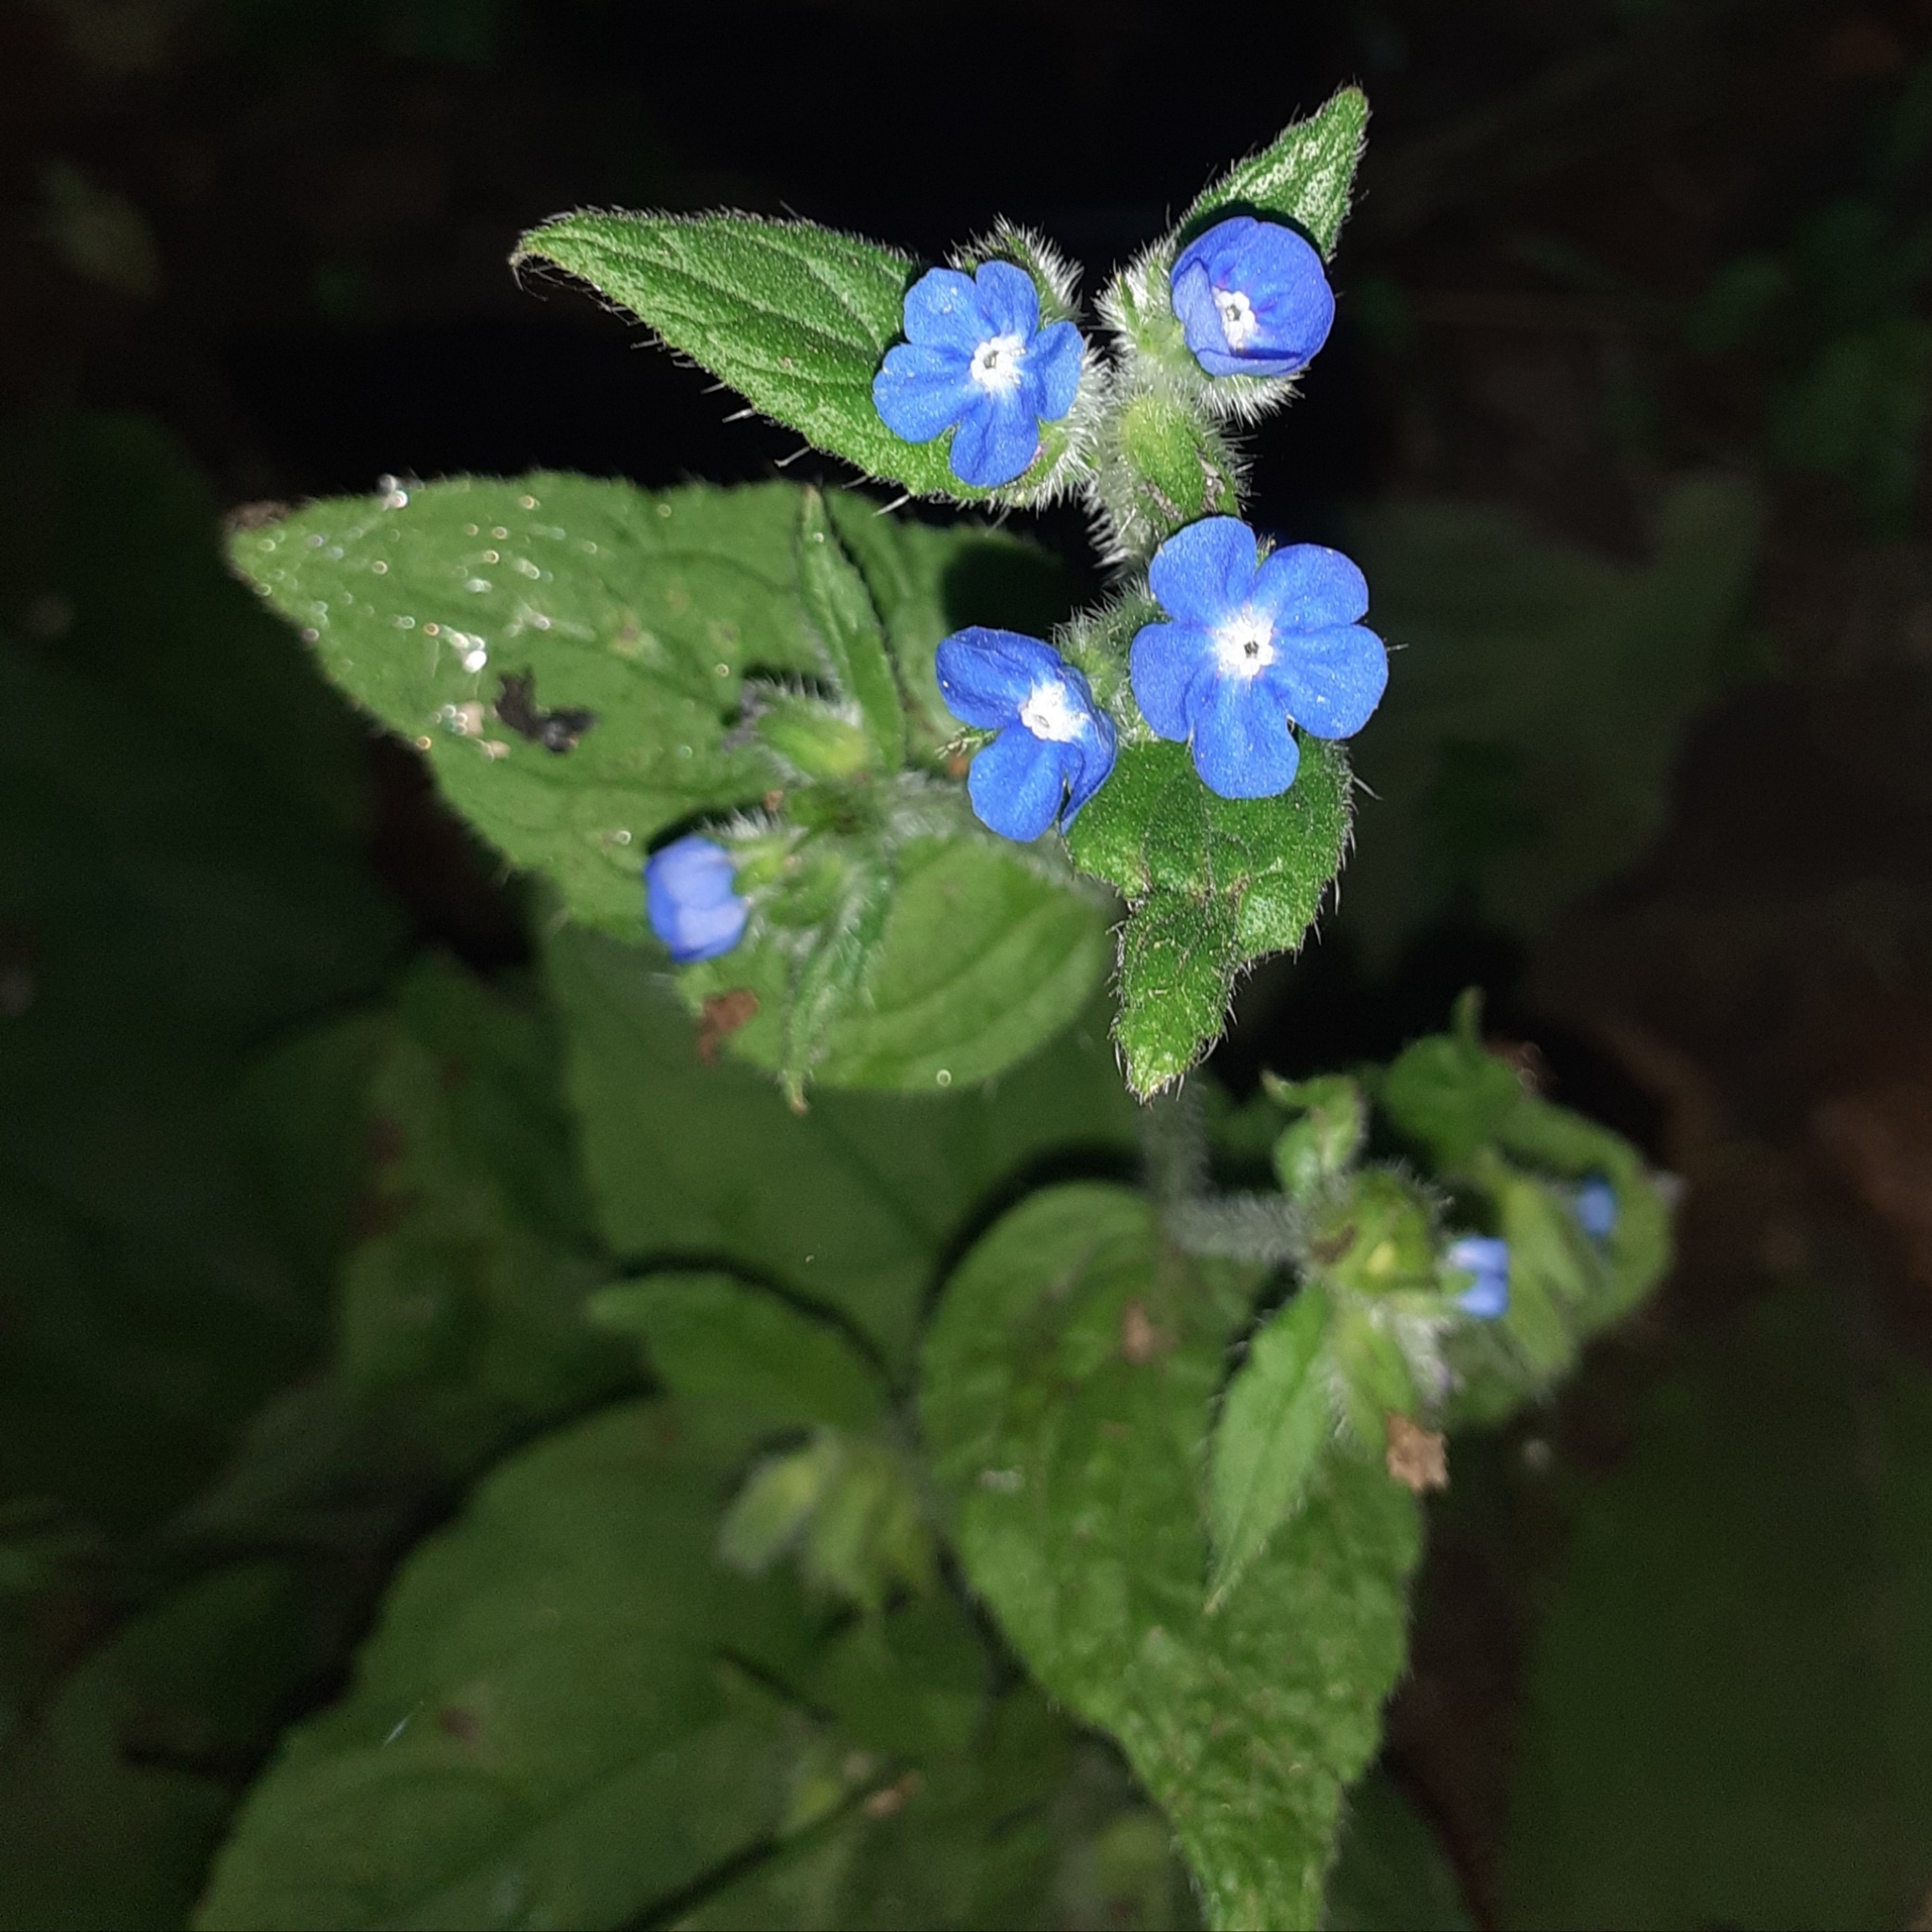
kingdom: Plantae
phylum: Tracheophyta
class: Magnoliopsida
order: Boraginales
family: Boraginaceae
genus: Pentaglottis
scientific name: Pentaglottis sempervirens
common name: Green alkanet
